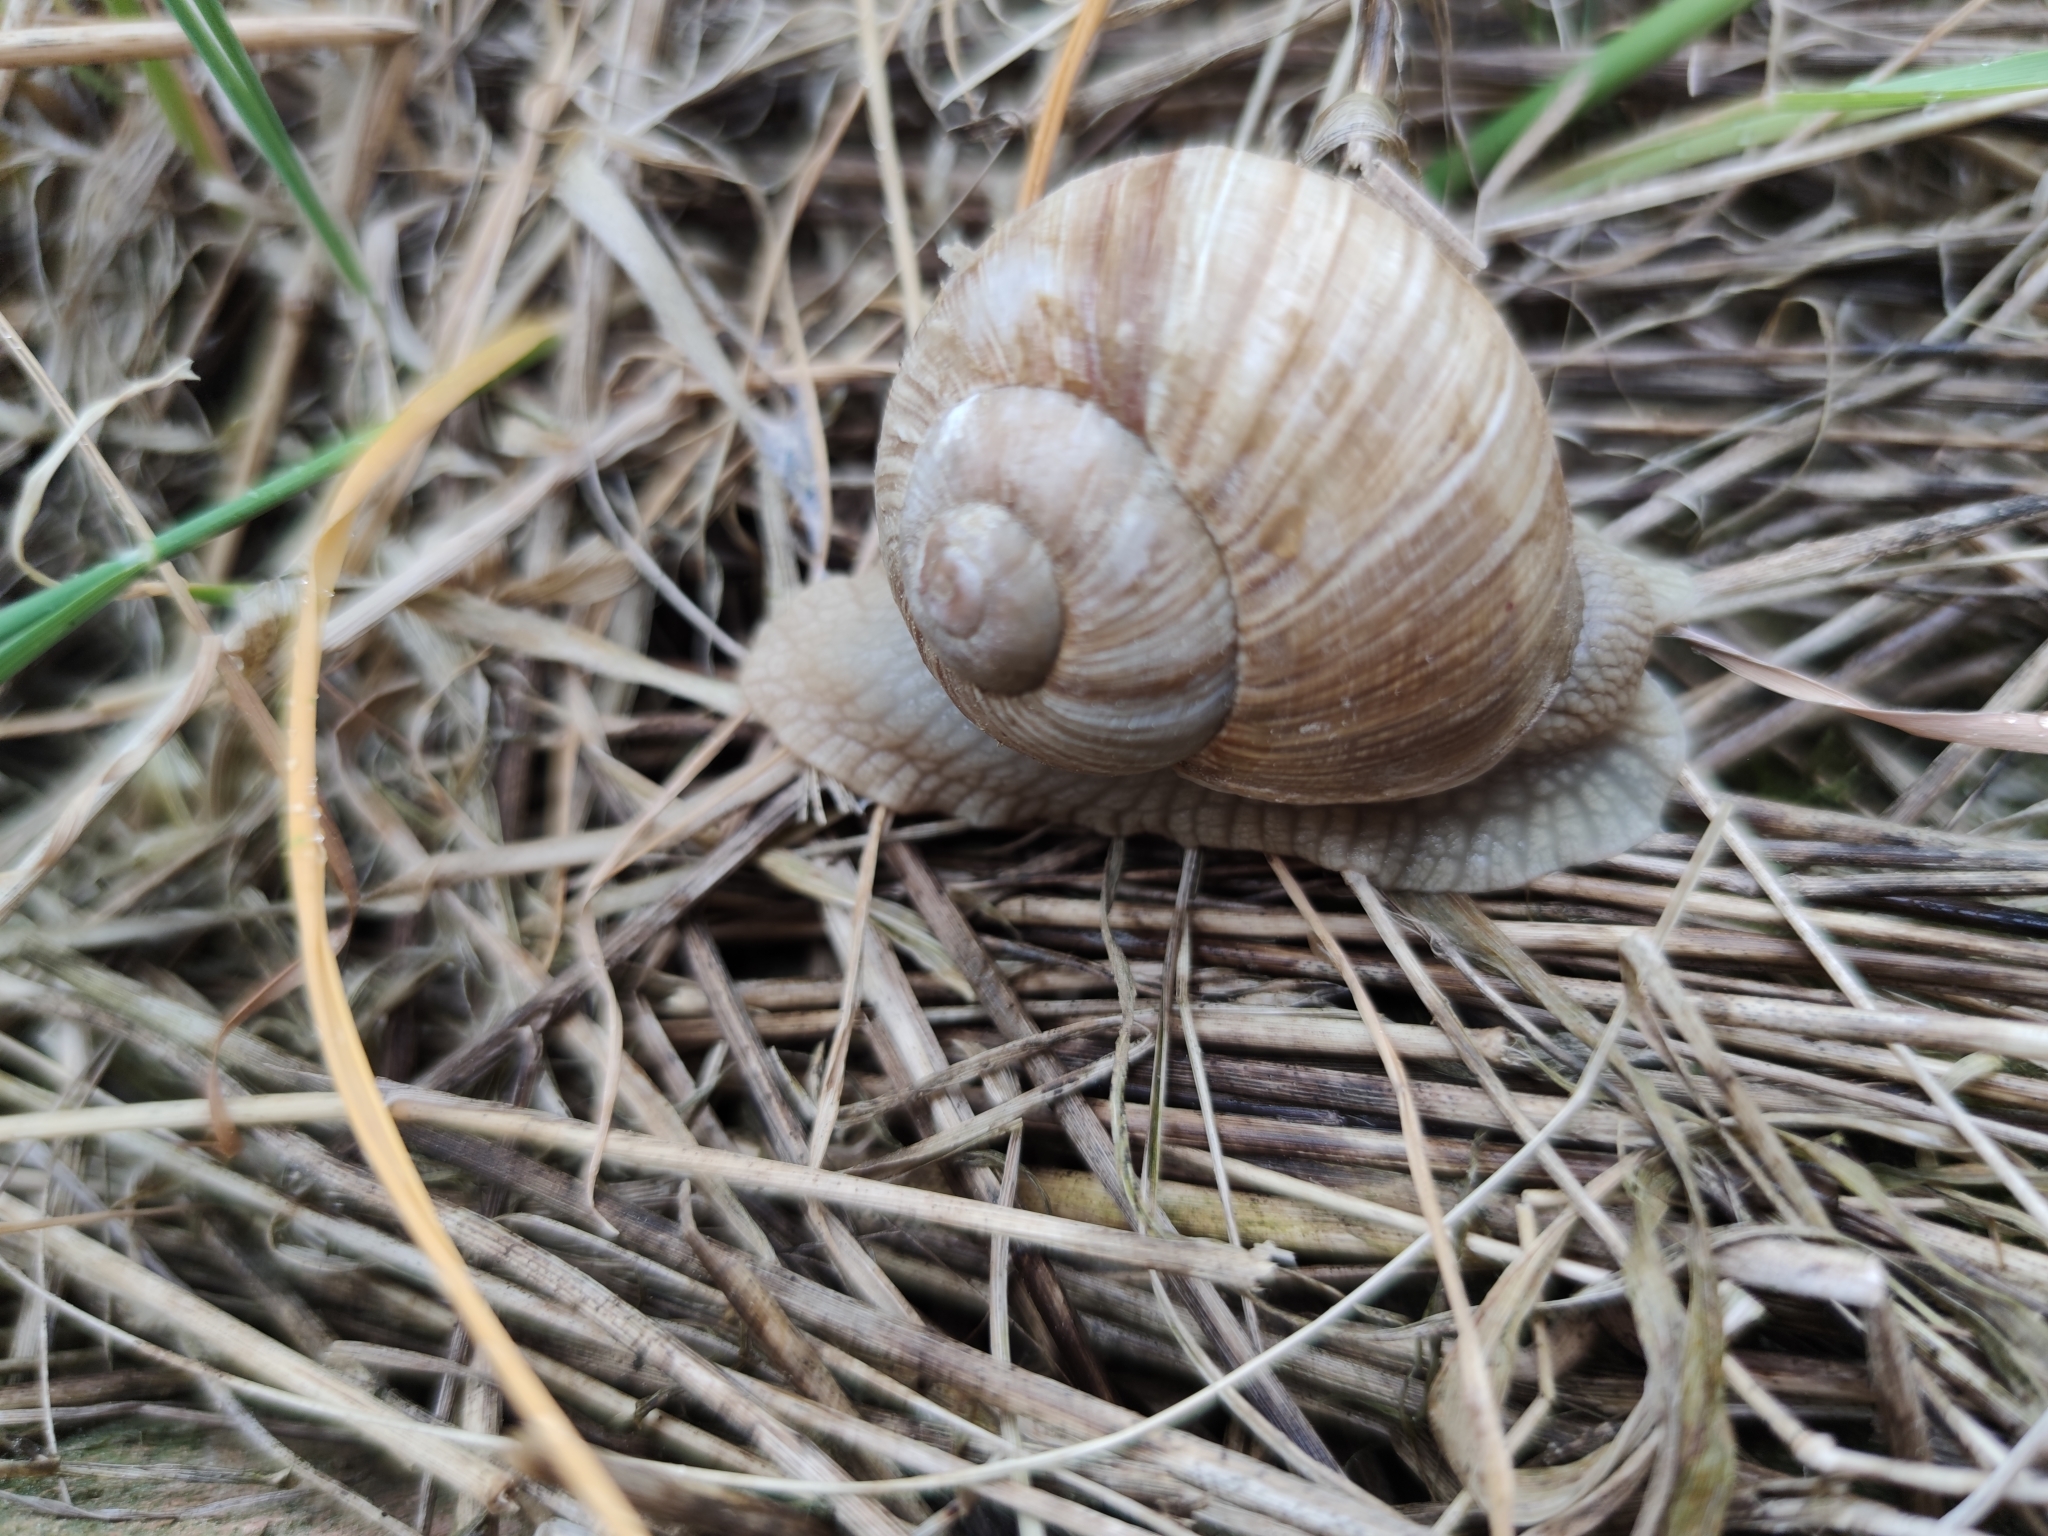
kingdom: Animalia
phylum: Mollusca
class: Gastropoda
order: Stylommatophora
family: Helicidae
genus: Helix
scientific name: Helix pomatia
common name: Roman snail
